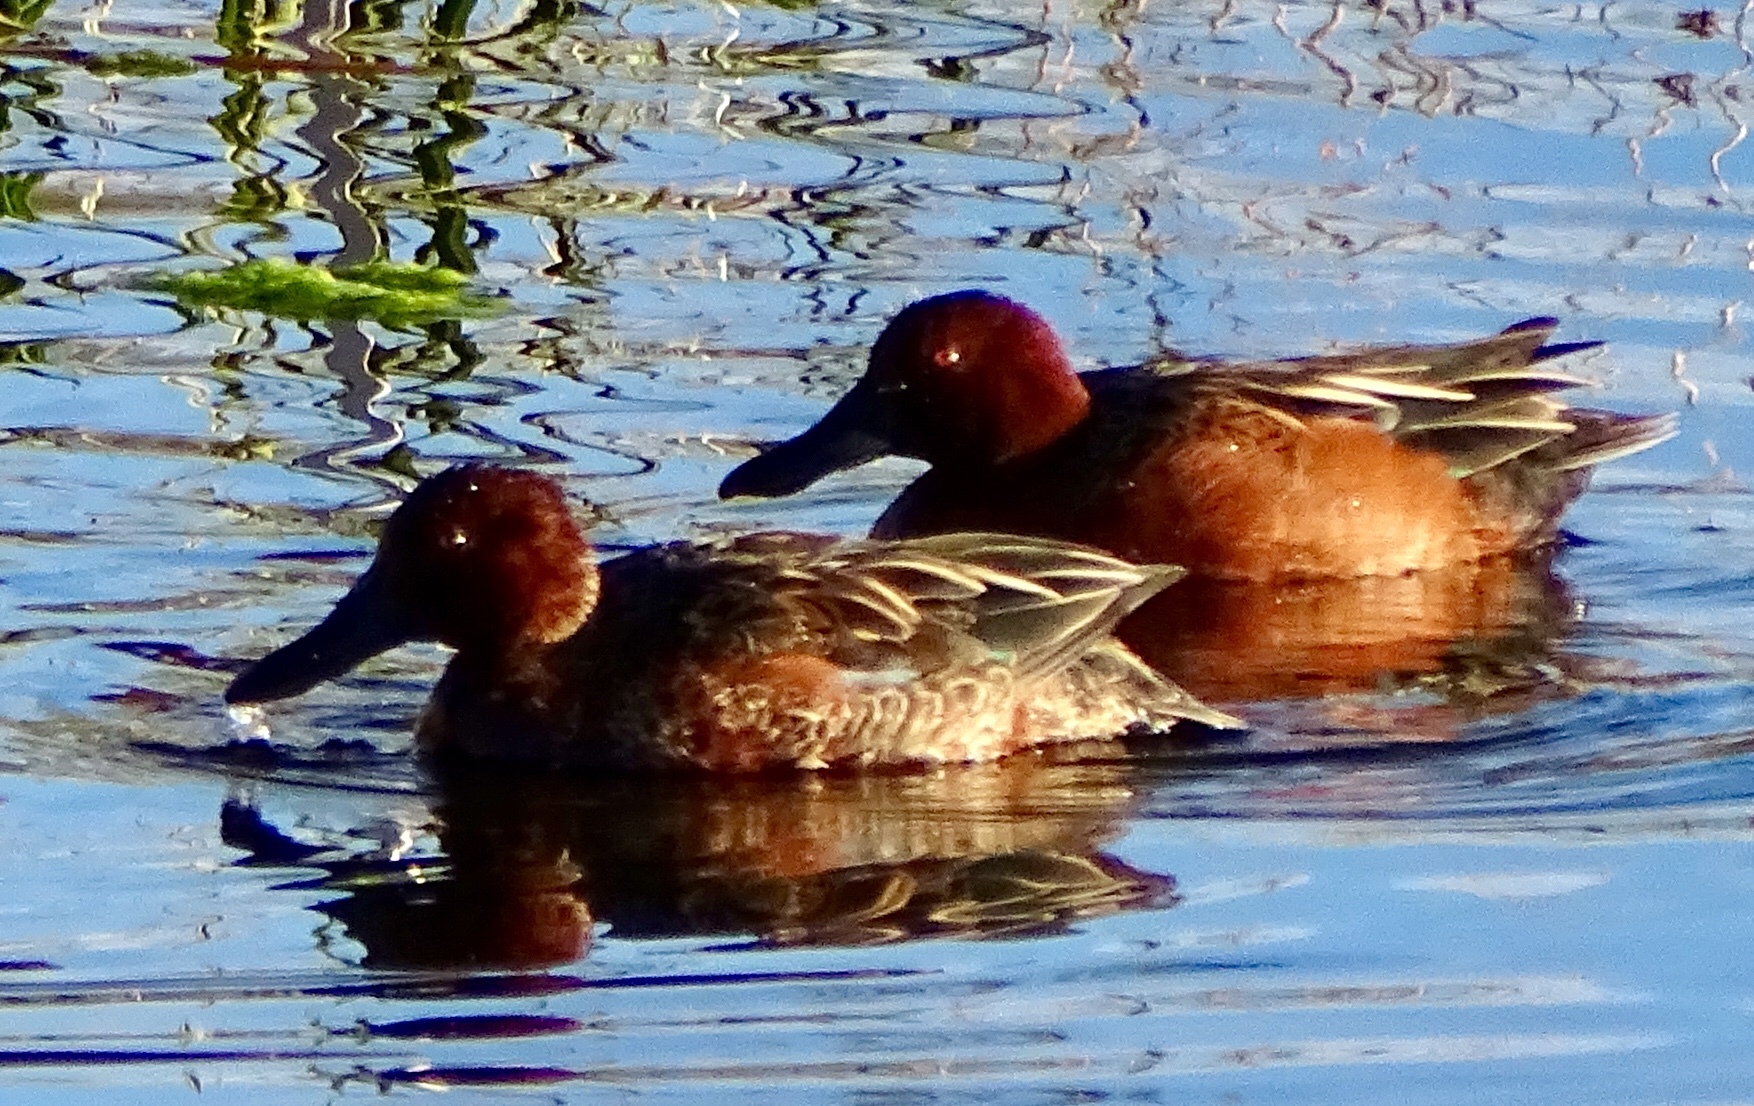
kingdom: Animalia
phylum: Chordata
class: Aves
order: Anseriformes
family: Anatidae
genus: Spatula
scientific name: Spatula cyanoptera
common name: Cinnamon teal
